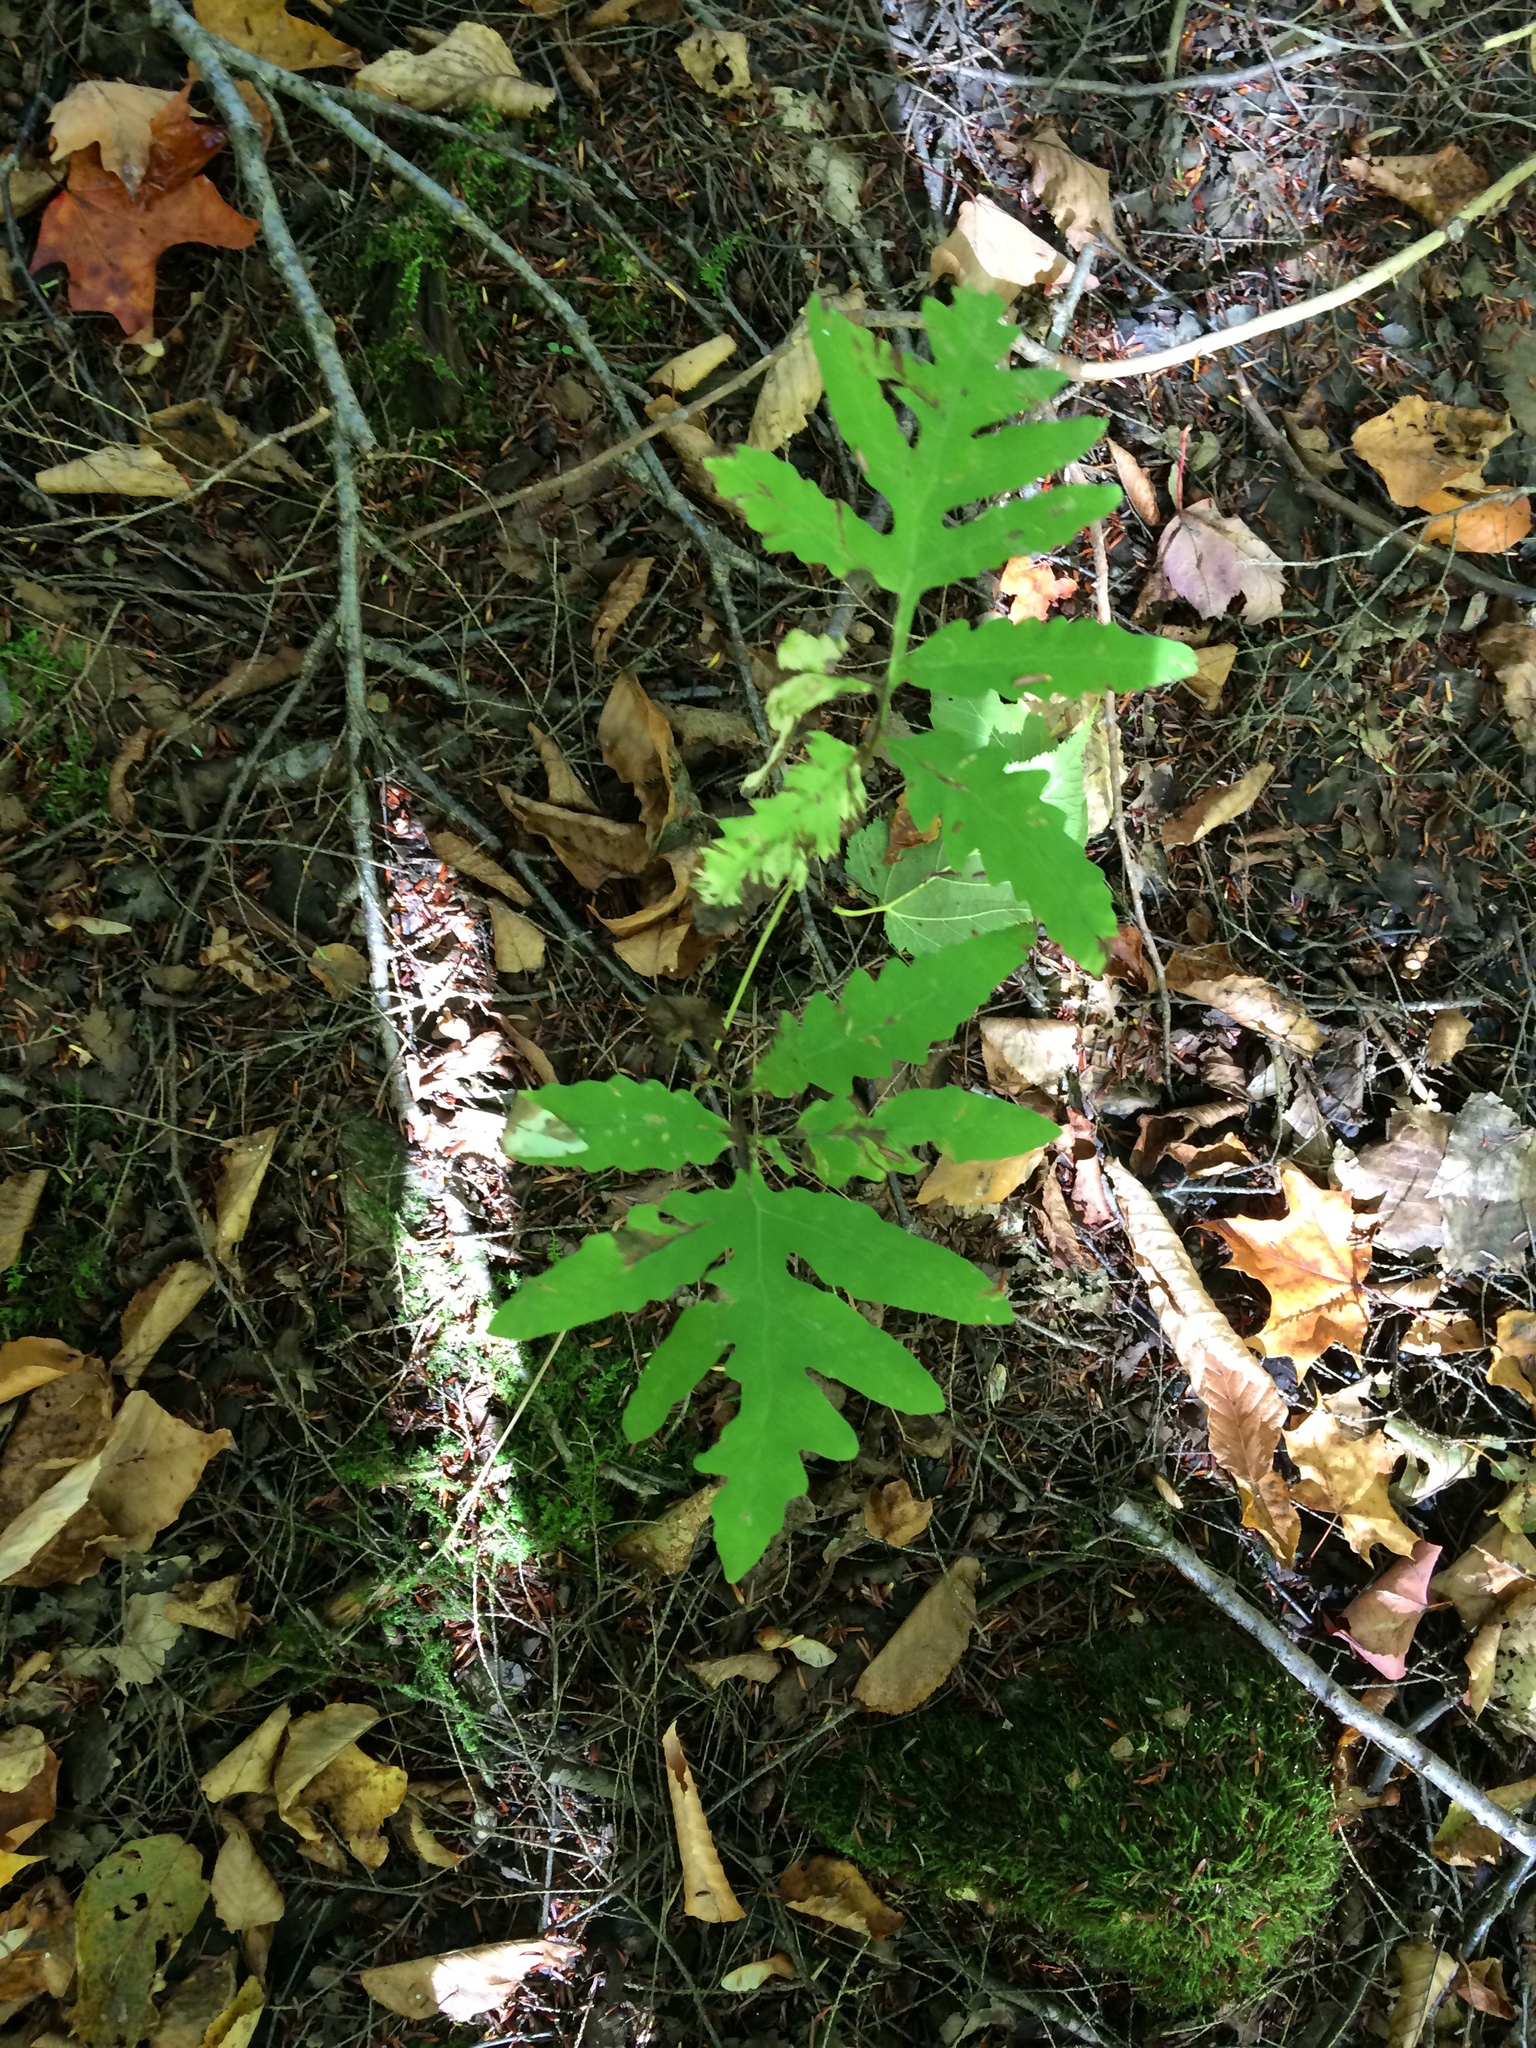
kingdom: Plantae
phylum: Tracheophyta
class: Polypodiopsida
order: Polypodiales
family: Onocleaceae
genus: Onoclea
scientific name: Onoclea sensibilis
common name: Sensitive fern
